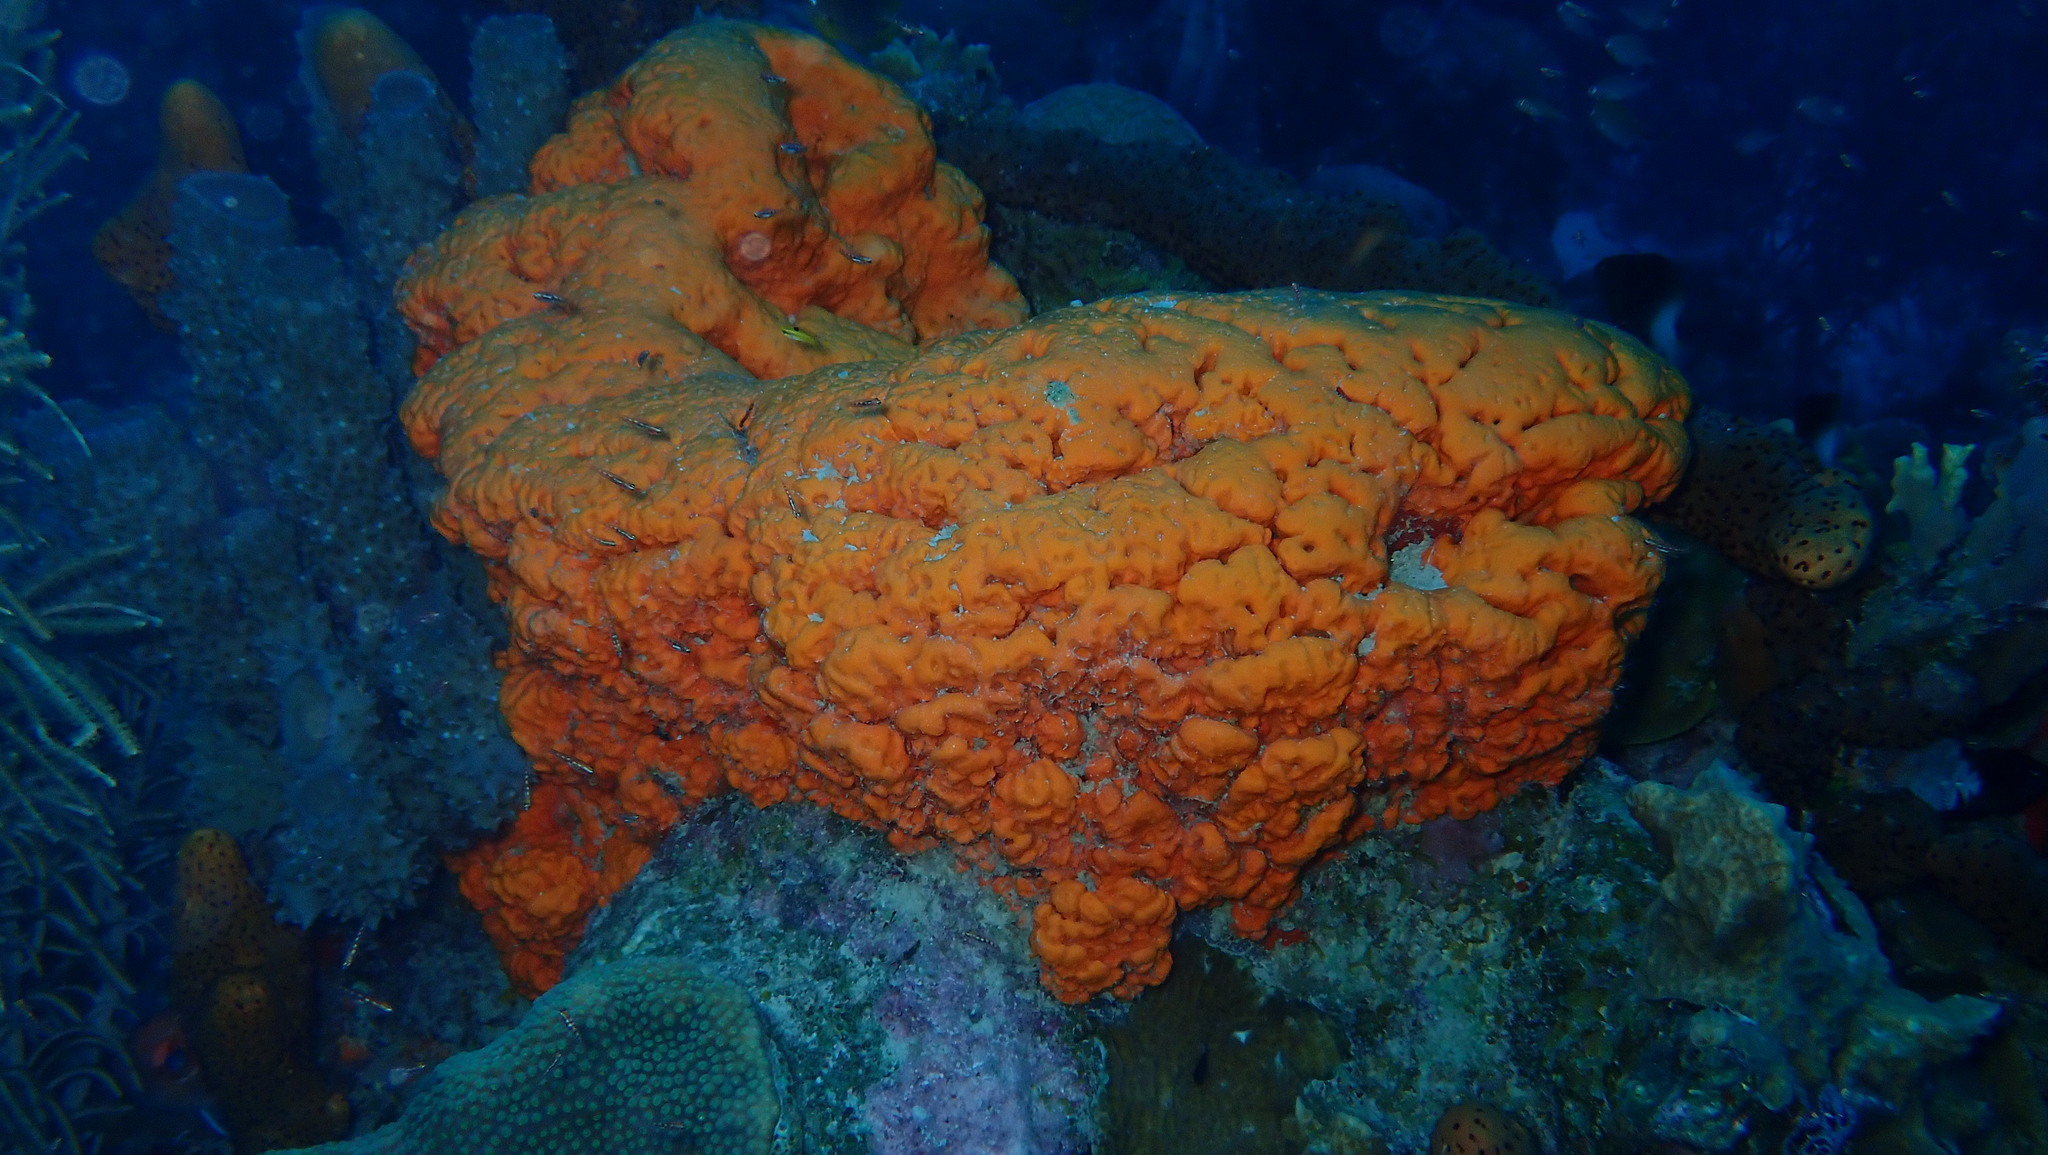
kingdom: Animalia
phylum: Porifera
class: Demospongiae
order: Agelasida
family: Agelasidae
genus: Agelas
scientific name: Agelas clathrodes
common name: Orange elephant ear sponge
